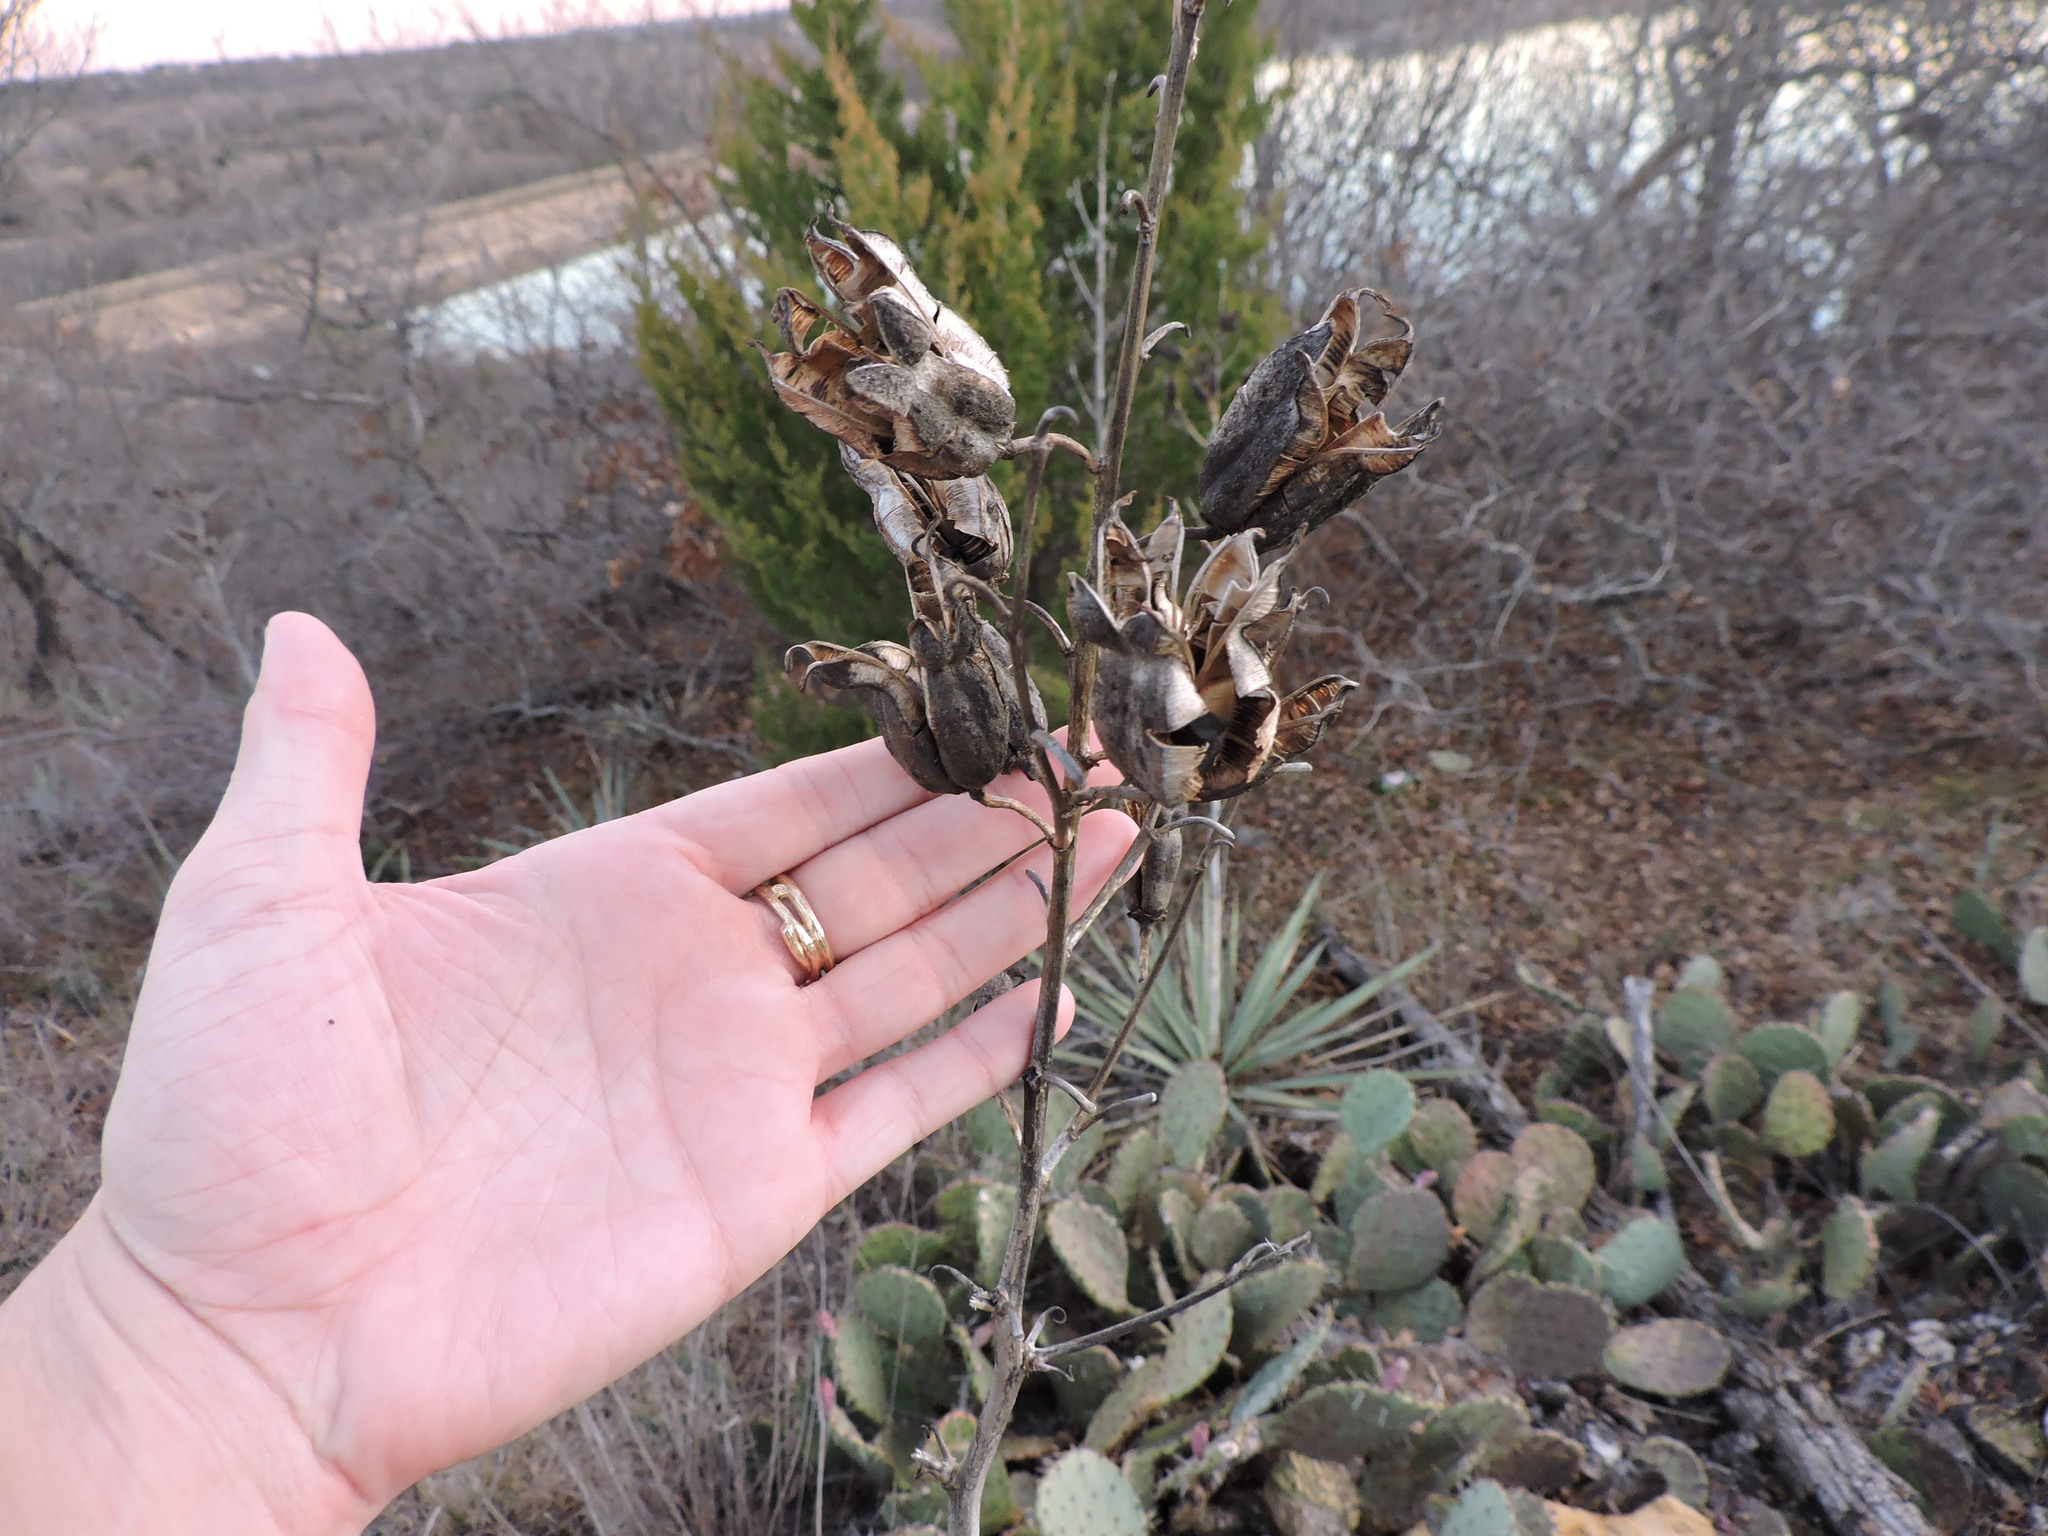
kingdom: Plantae
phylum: Tracheophyta
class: Liliopsida
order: Asparagales
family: Asparagaceae
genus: Yucca
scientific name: Yucca pallida
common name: Pale leaf yucca
